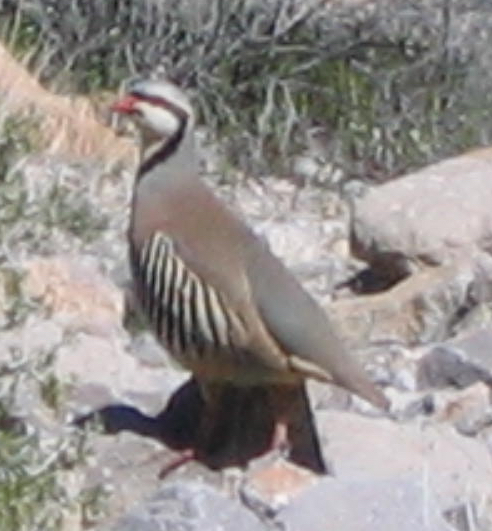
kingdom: Animalia
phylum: Chordata
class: Aves
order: Galliformes
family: Phasianidae
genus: Alectoris
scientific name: Alectoris chukar
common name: Chukar
